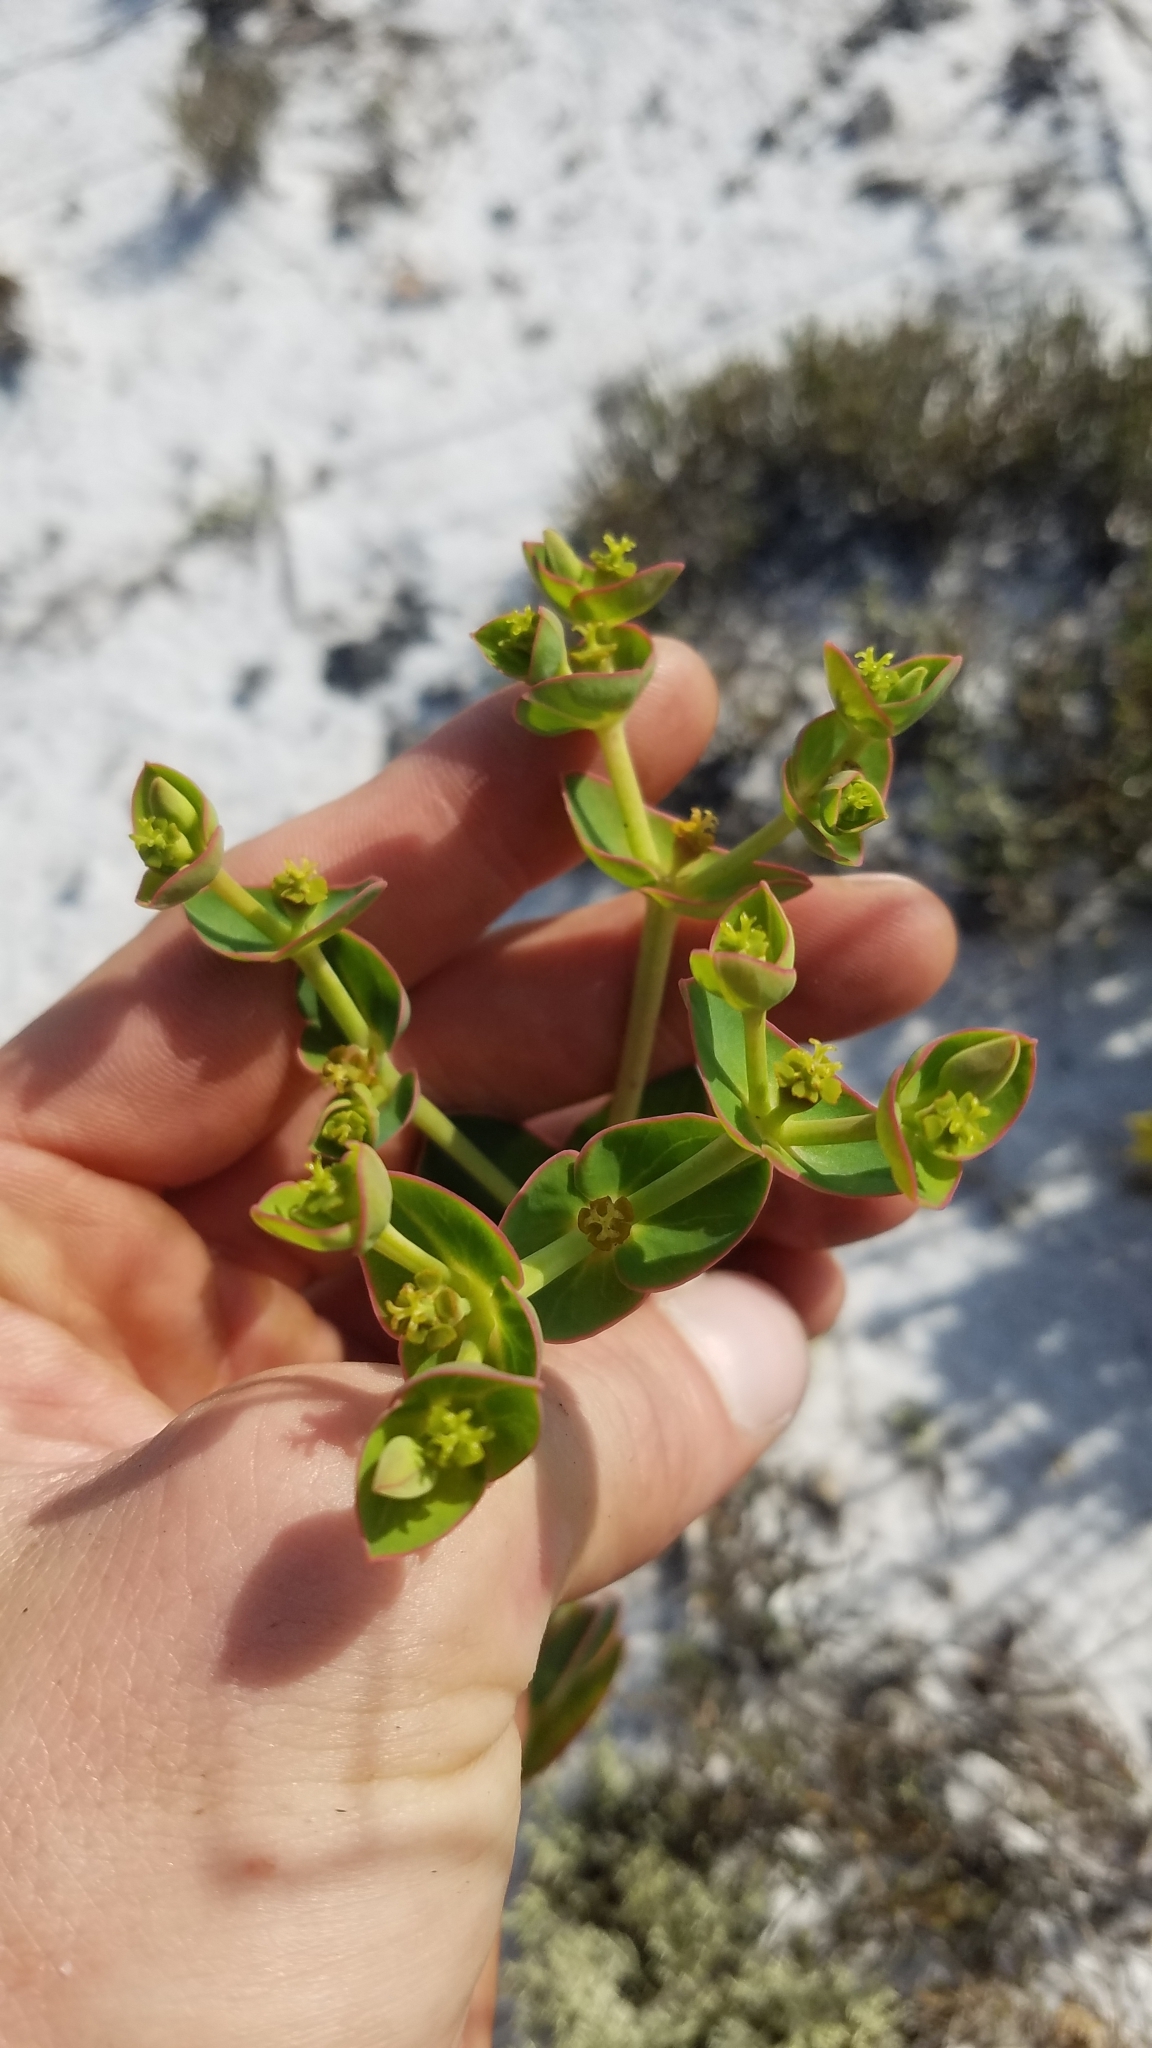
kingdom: Plantae
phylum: Tracheophyta
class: Magnoliopsida
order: Malpighiales
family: Euphorbiaceae
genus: Euphorbia
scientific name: Euphorbia rosescens
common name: Scrub spurge
